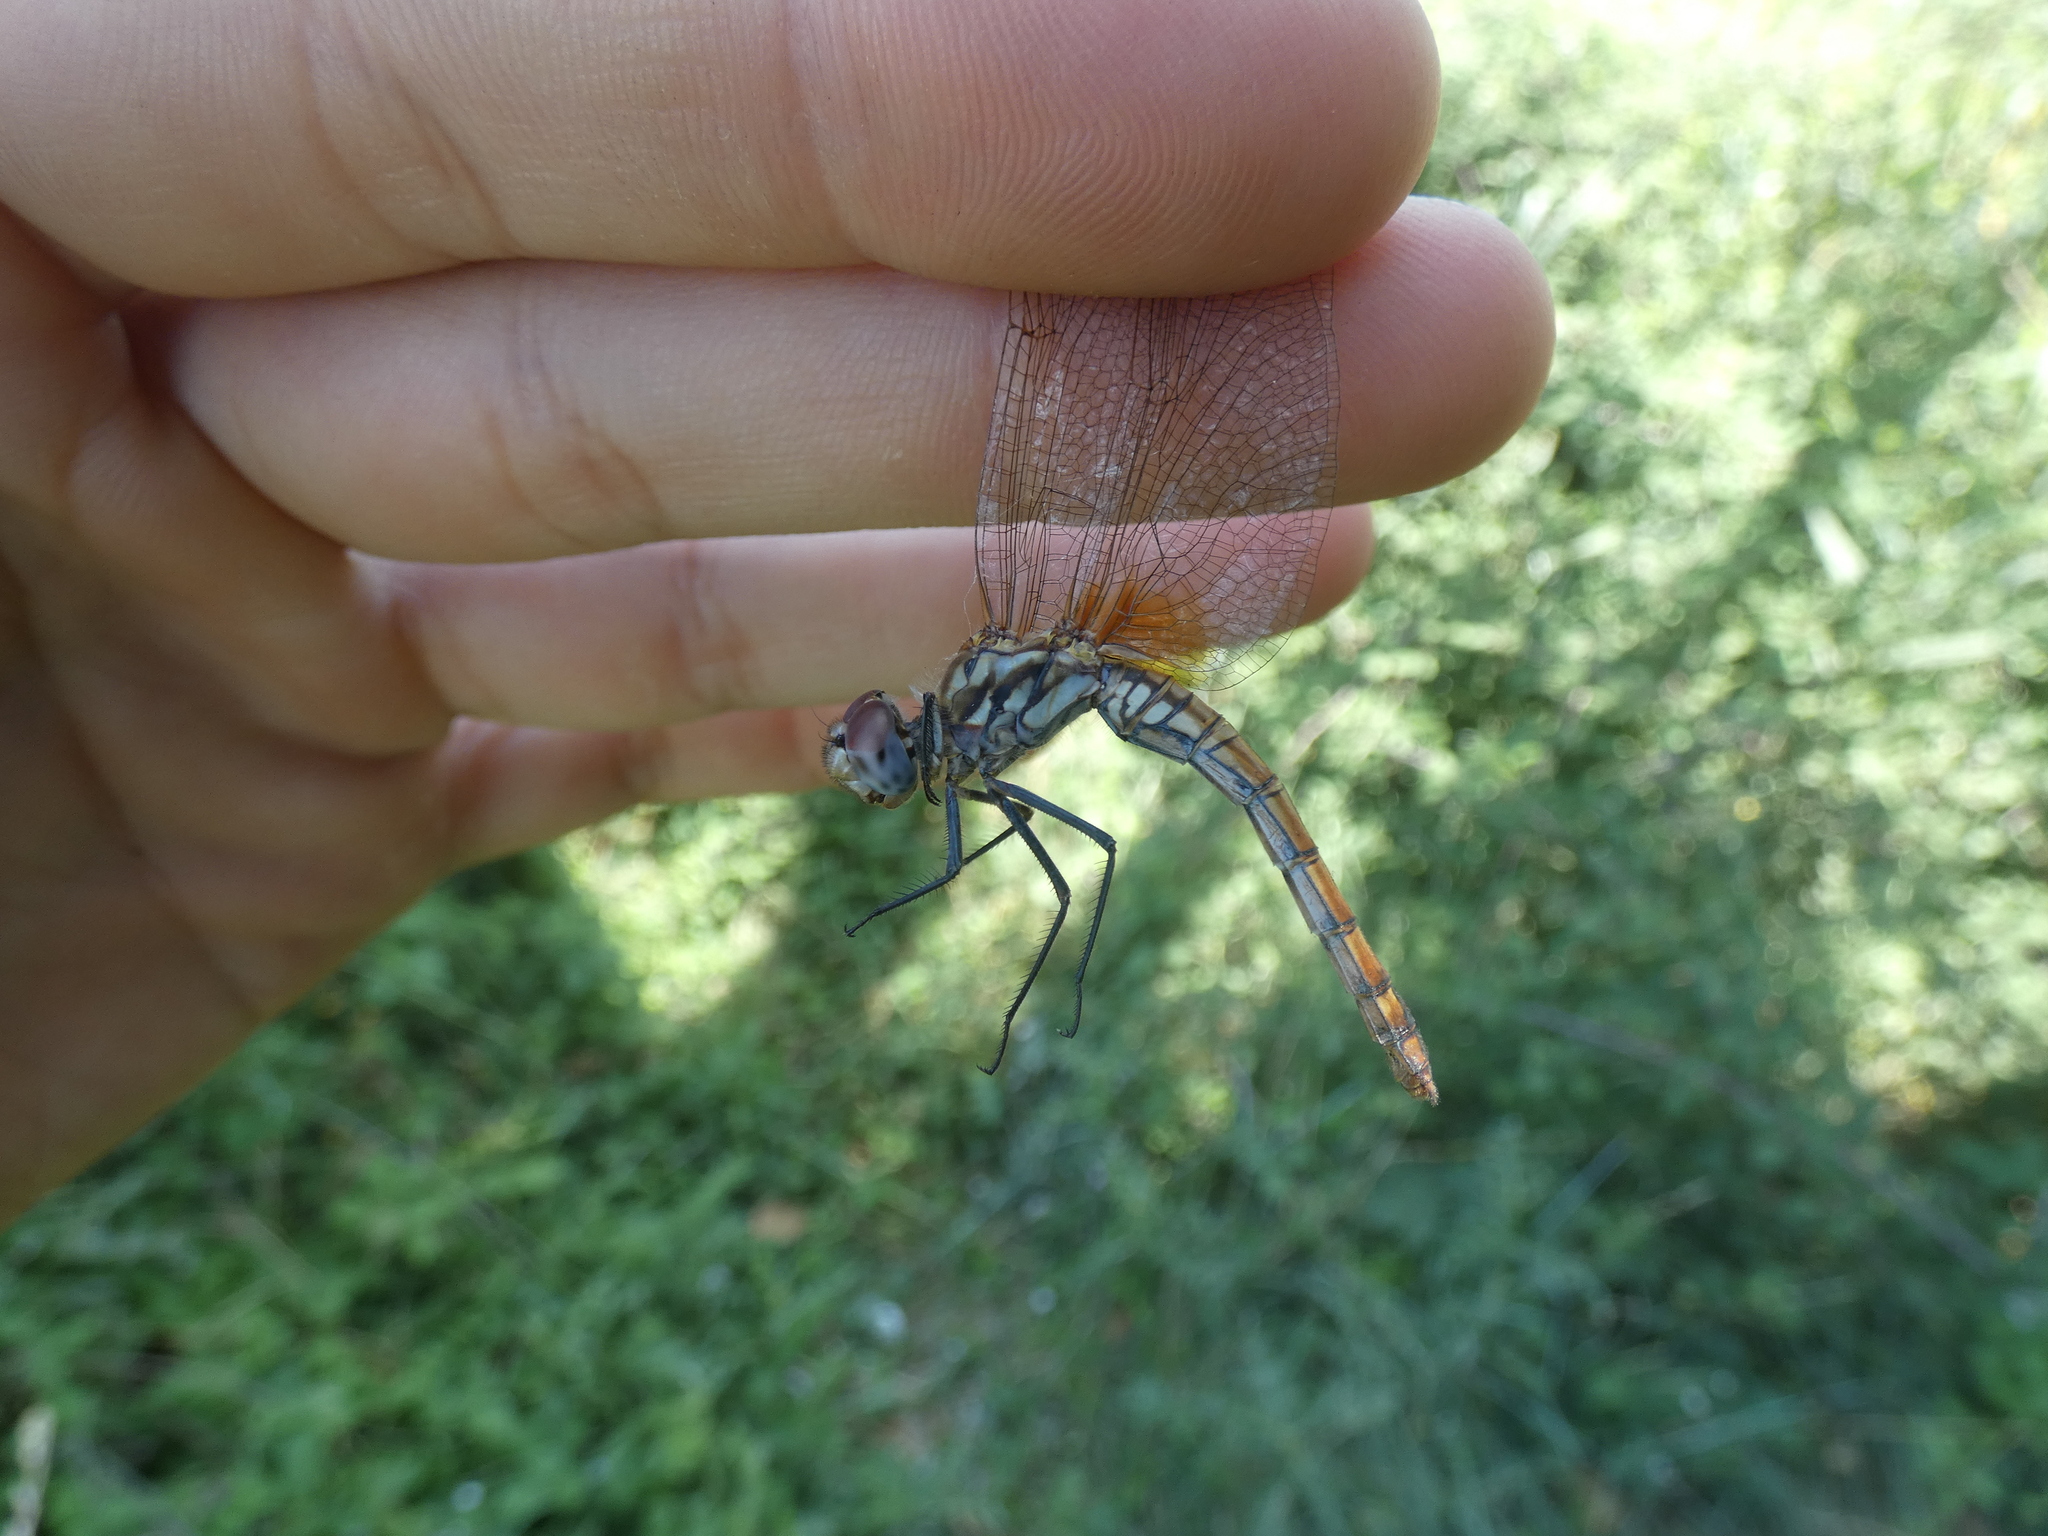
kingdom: Animalia
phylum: Arthropoda
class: Insecta
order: Odonata
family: Libellulidae
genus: Trithemis
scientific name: Trithemis annulata
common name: Violet dropwing
